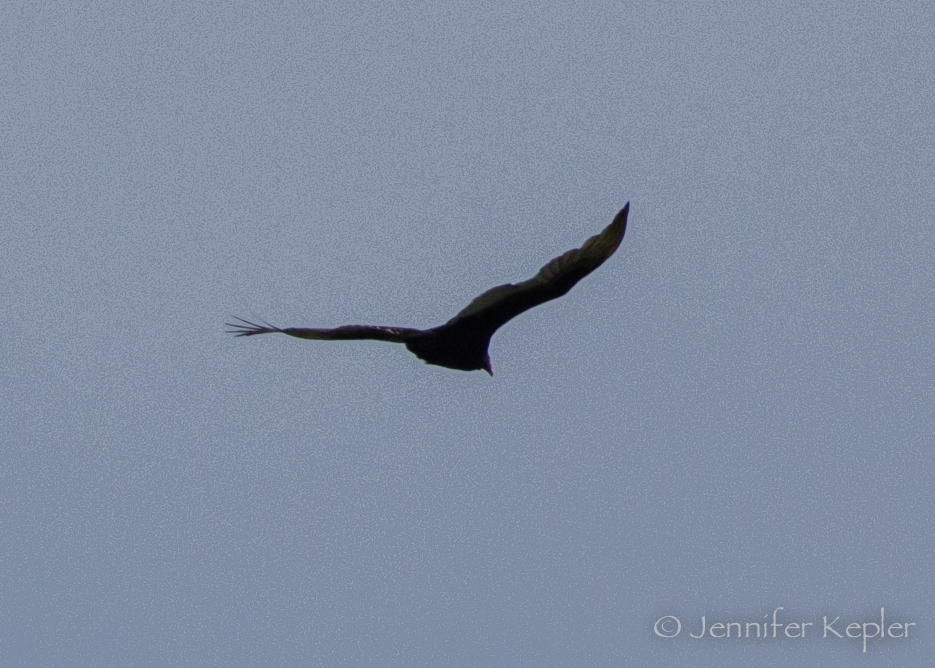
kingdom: Animalia
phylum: Chordata
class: Aves
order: Accipitriformes
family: Cathartidae
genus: Cathartes
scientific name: Cathartes aura
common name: Turkey vulture
